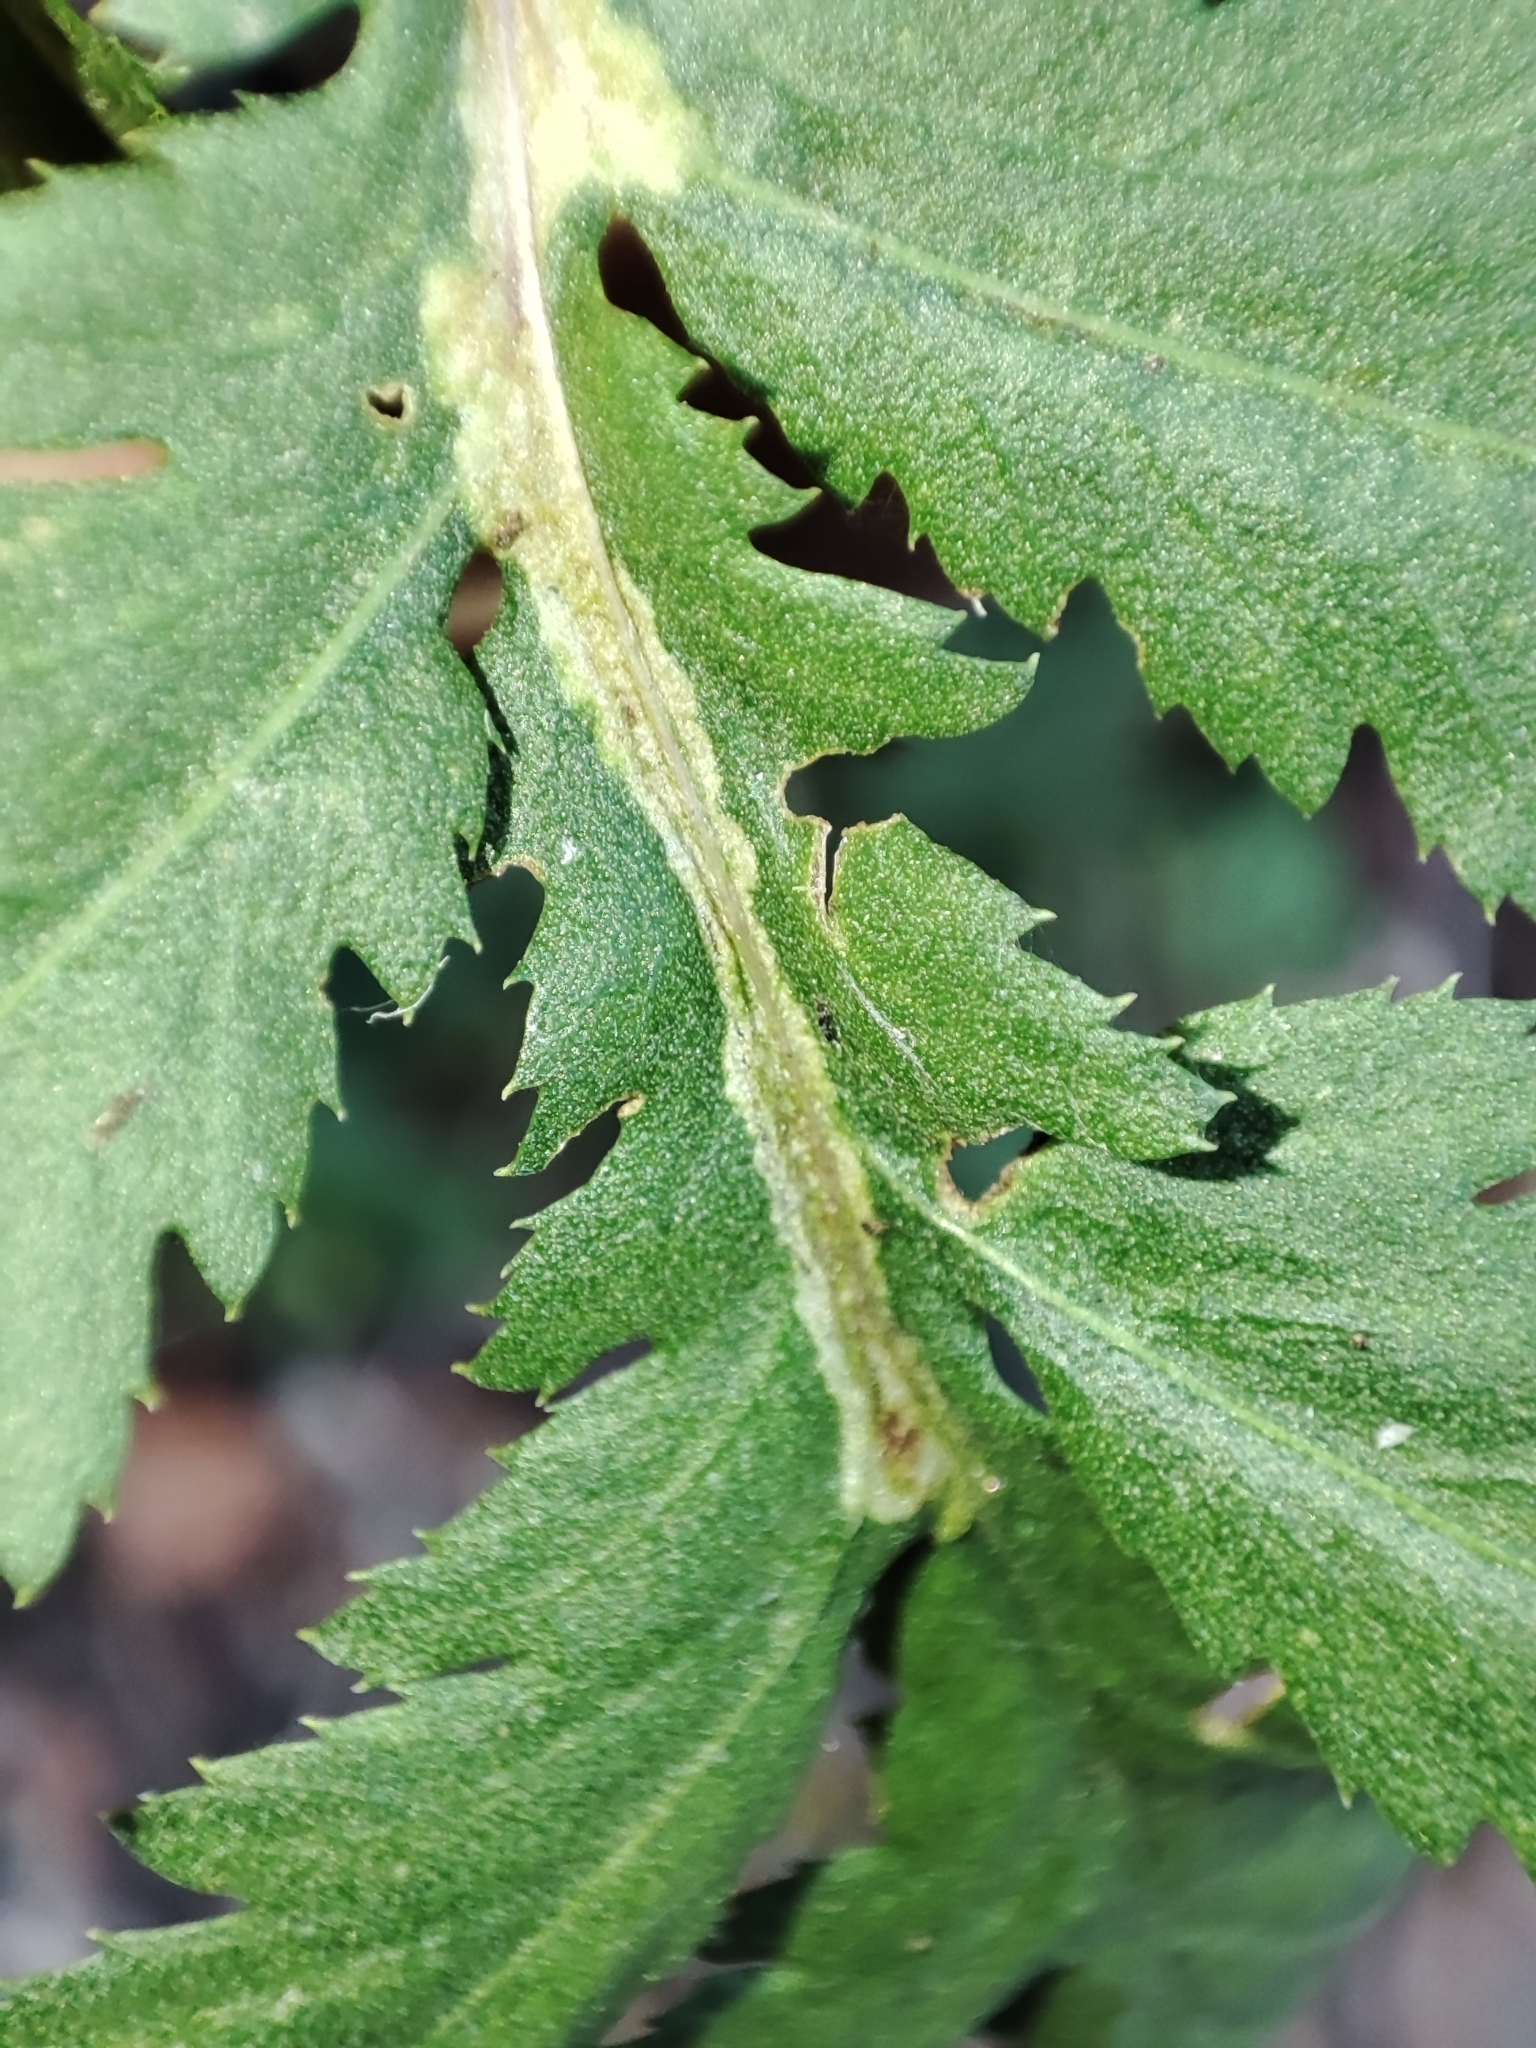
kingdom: Plantae
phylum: Tracheophyta
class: Magnoliopsida
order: Asterales
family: Asteraceae
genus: Tanacetum
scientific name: Tanacetum vulgare
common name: Common tansy
